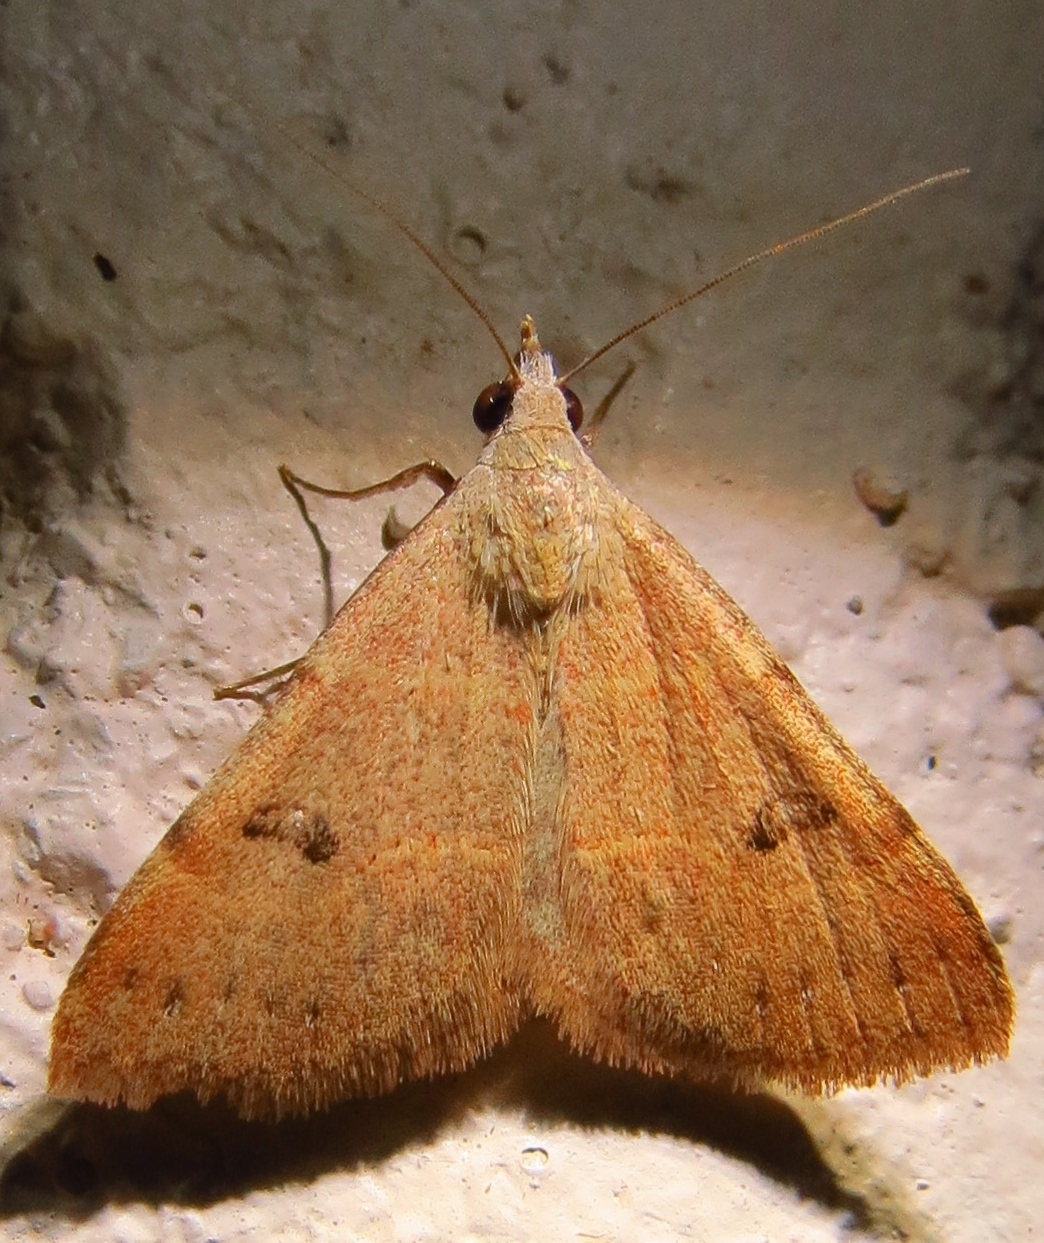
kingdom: Animalia
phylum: Arthropoda
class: Insecta
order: Lepidoptera
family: Erebidae
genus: Hemeroplanis
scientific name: Hemeroplanis habitalis
